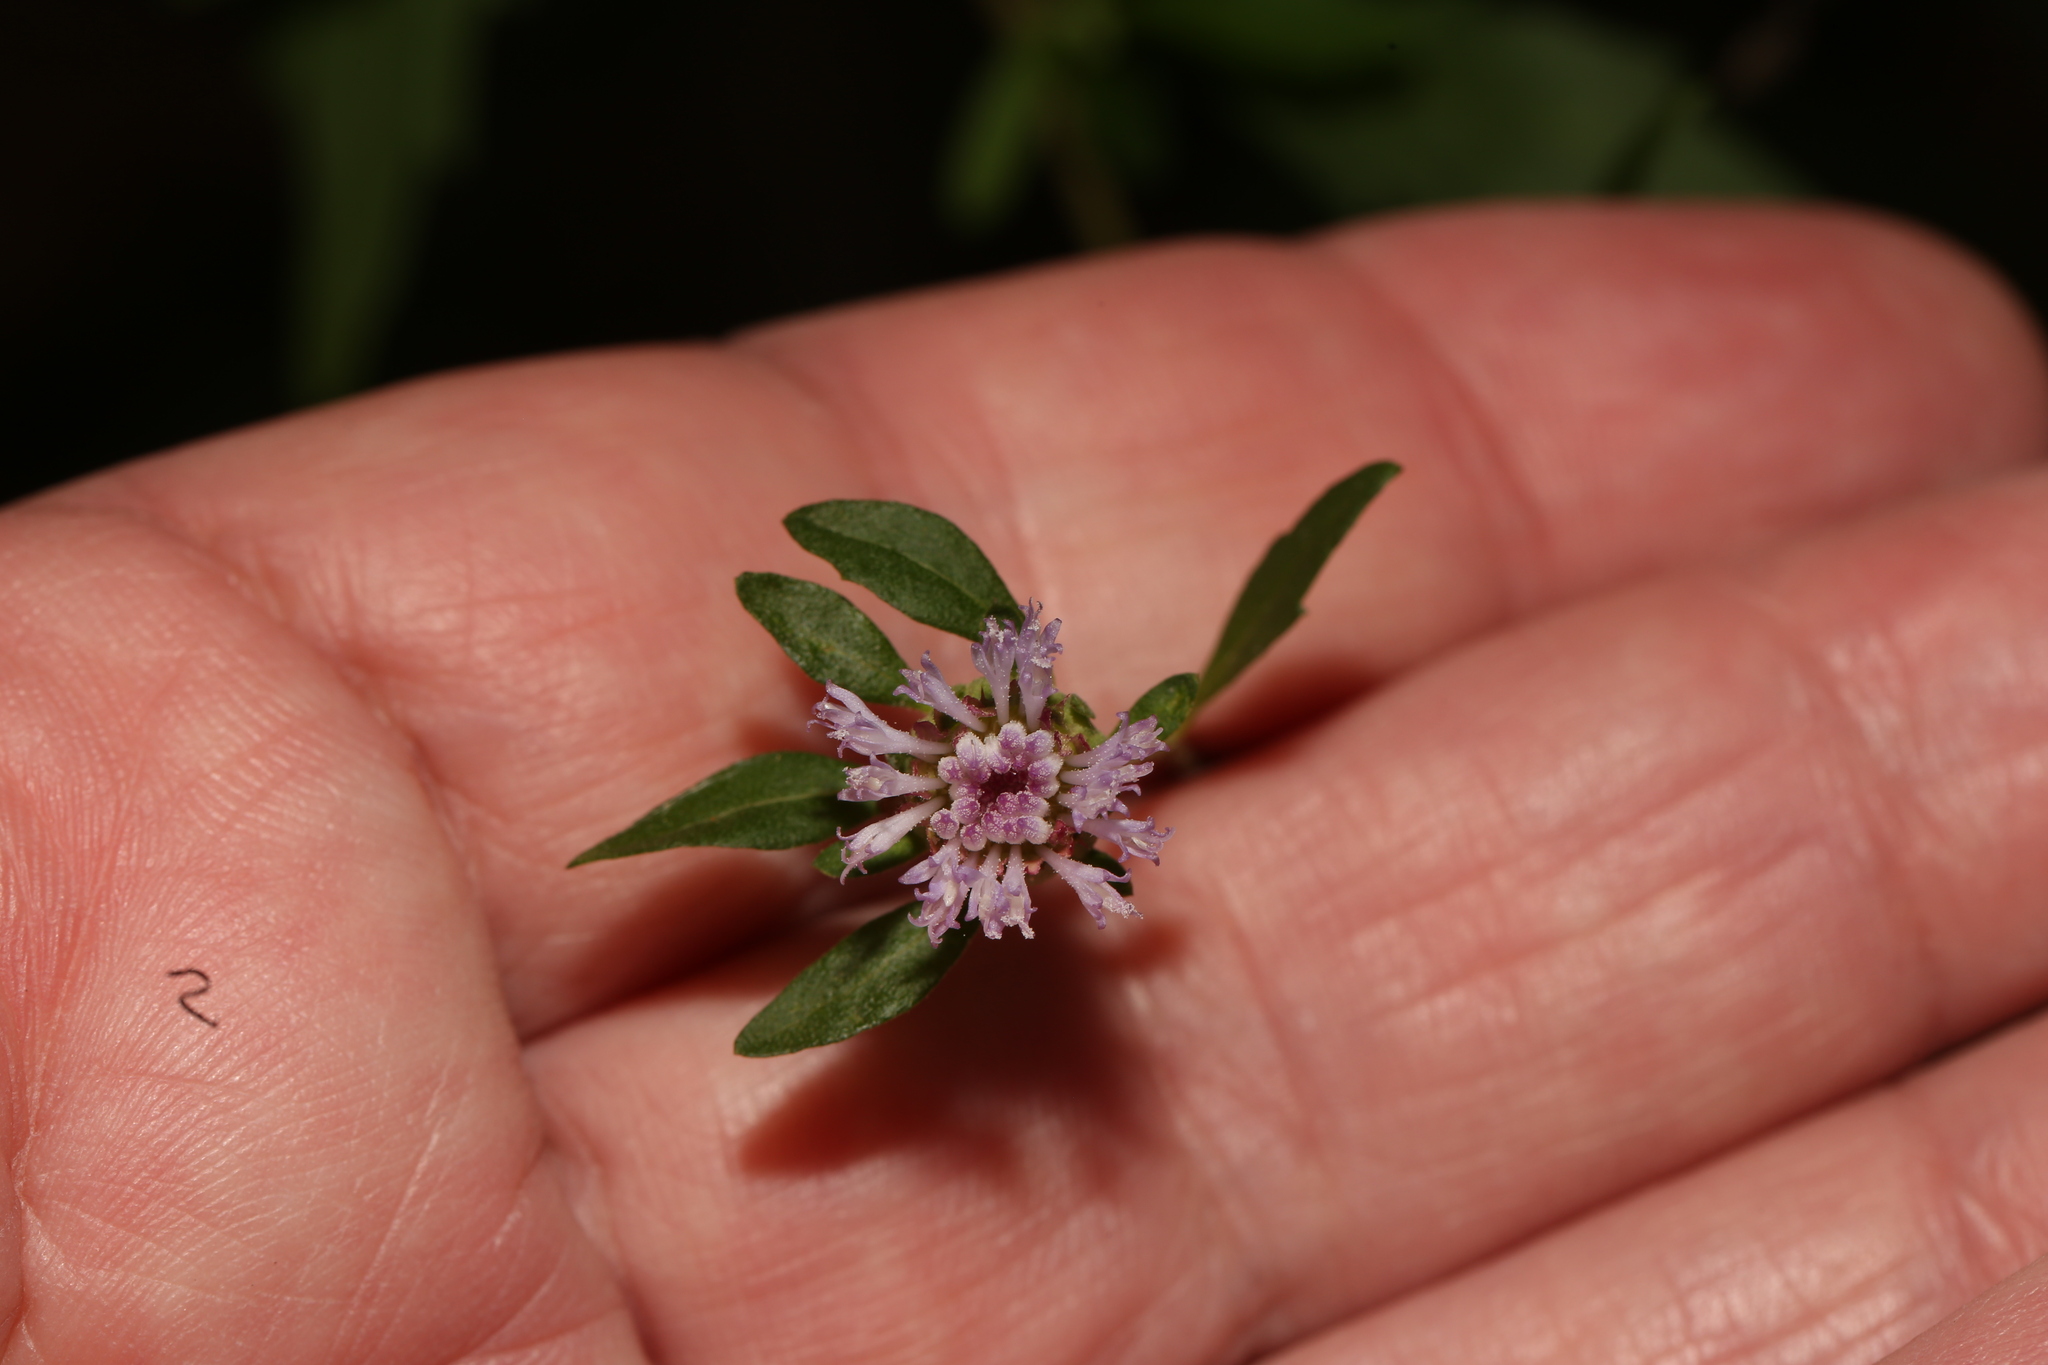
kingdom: Plantae
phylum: Tracheophyta
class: Magnoliopsida
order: Asterales
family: Asteraceae
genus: Centratherum
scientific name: Centratherum punctatum
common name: Larkdaisy
